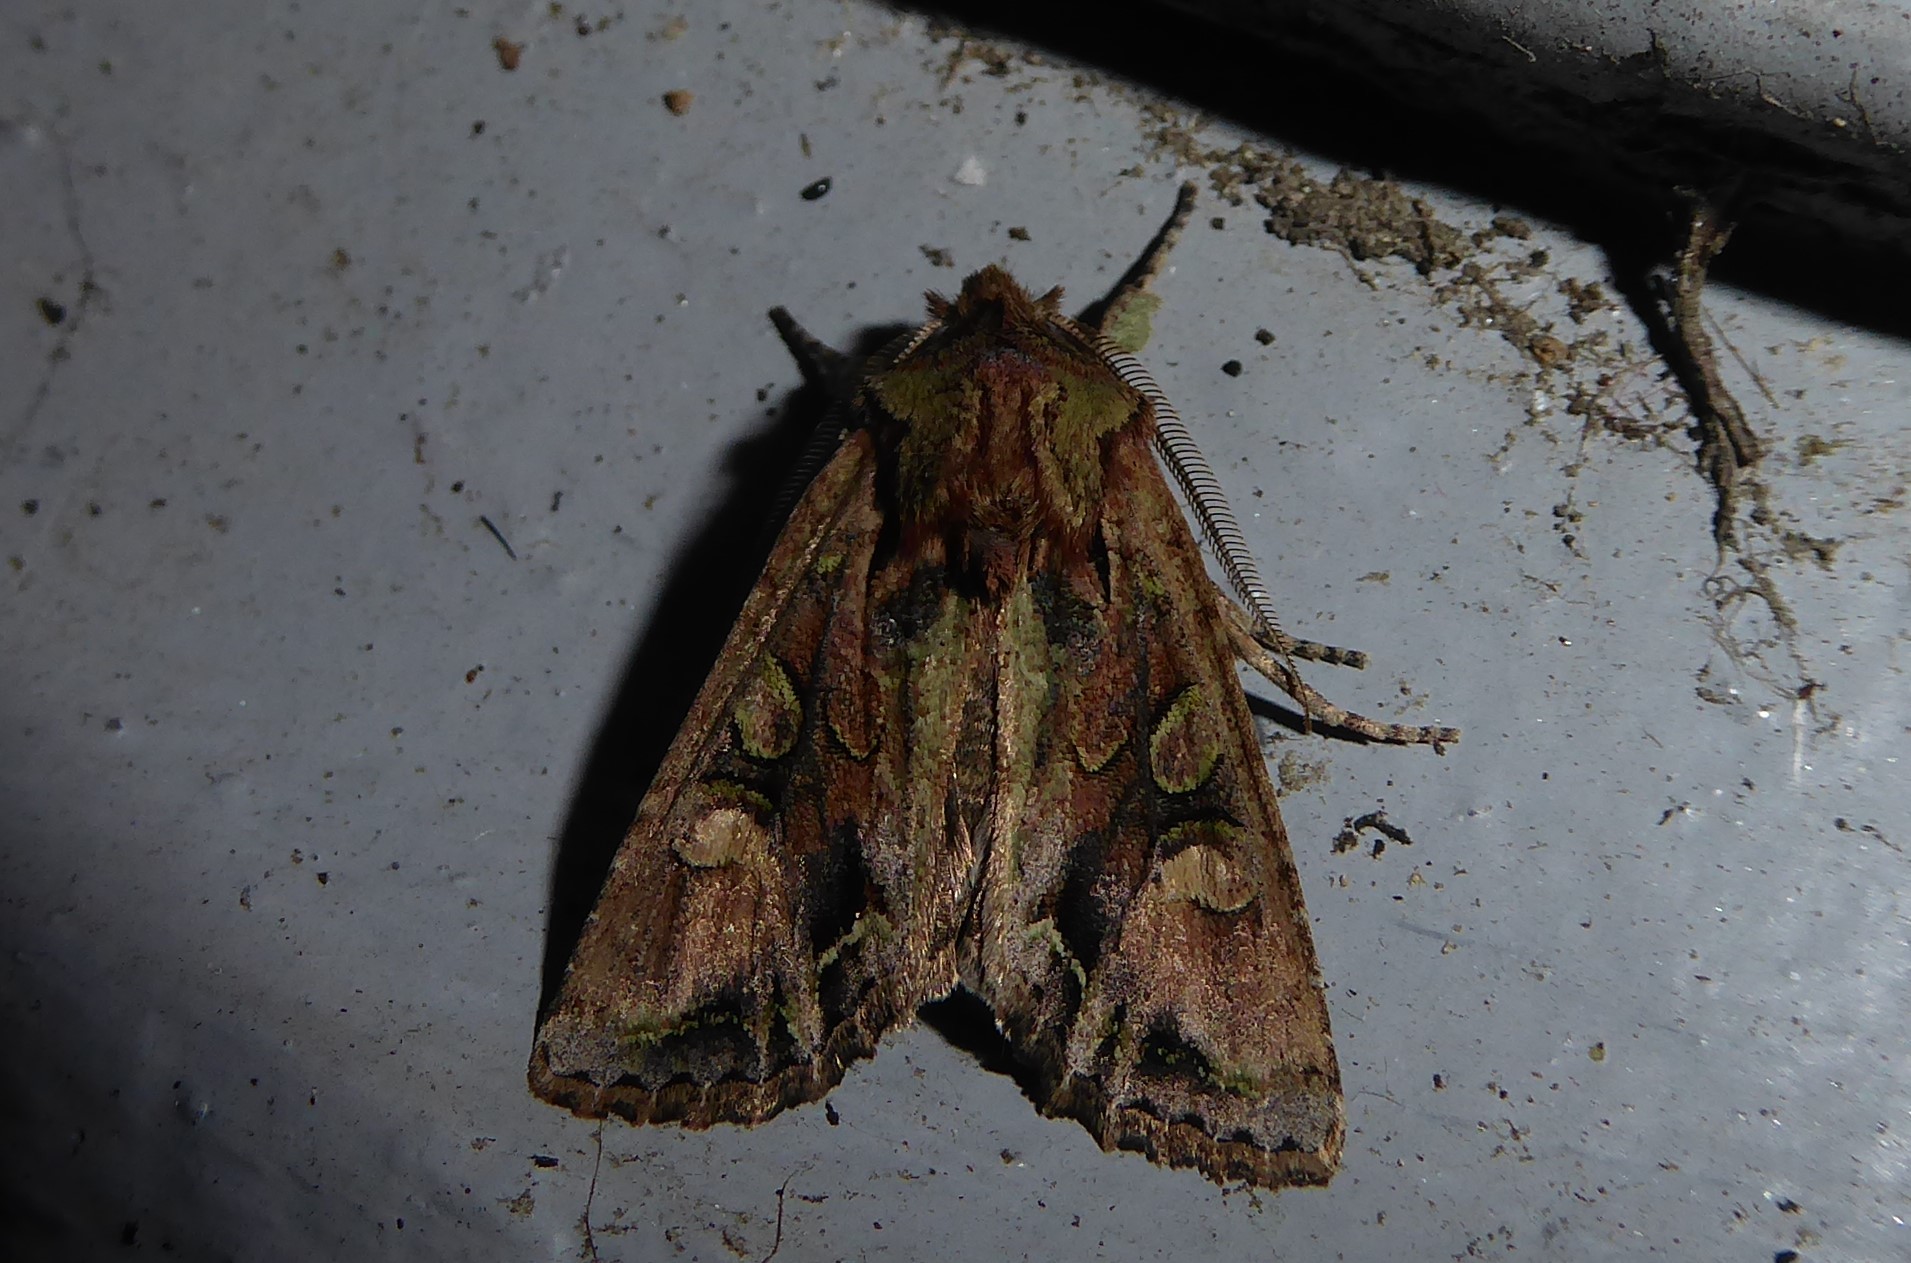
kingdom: Animalia
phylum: Arthropoda
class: Insecta
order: Lepidoptera
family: Noctuidae
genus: Ichneutica
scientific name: Ichneutica skelloni
